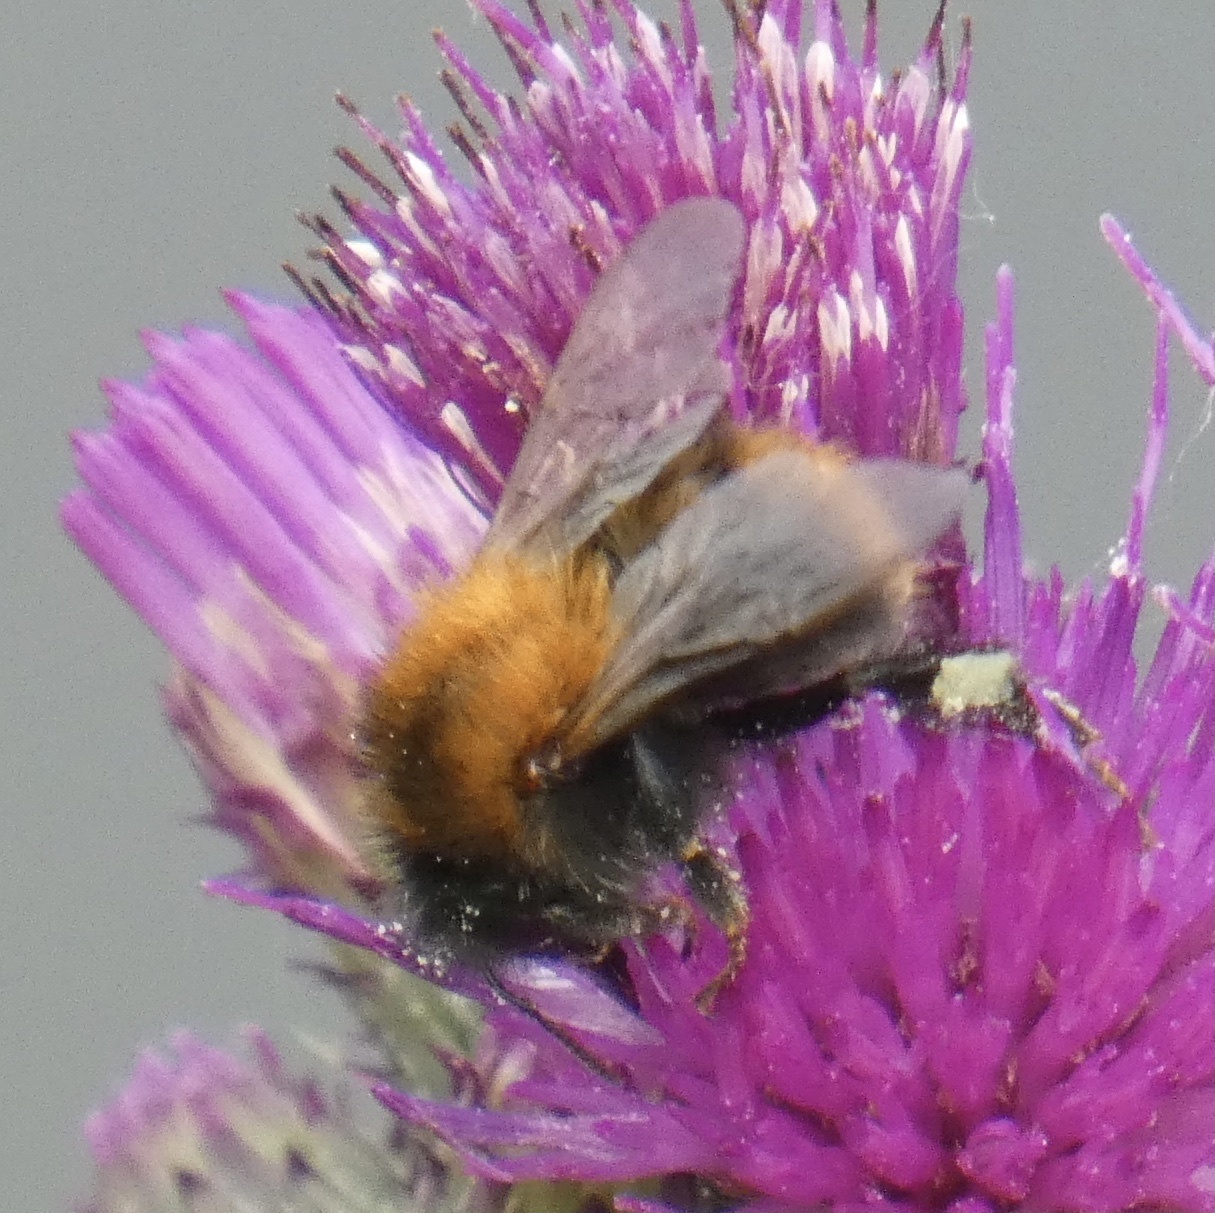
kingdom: Animalia
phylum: Arthropoda
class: Insecta
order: Hymenoptera
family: Apidae
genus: Bombus
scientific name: Bombus pascuorum
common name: Common carder bee
